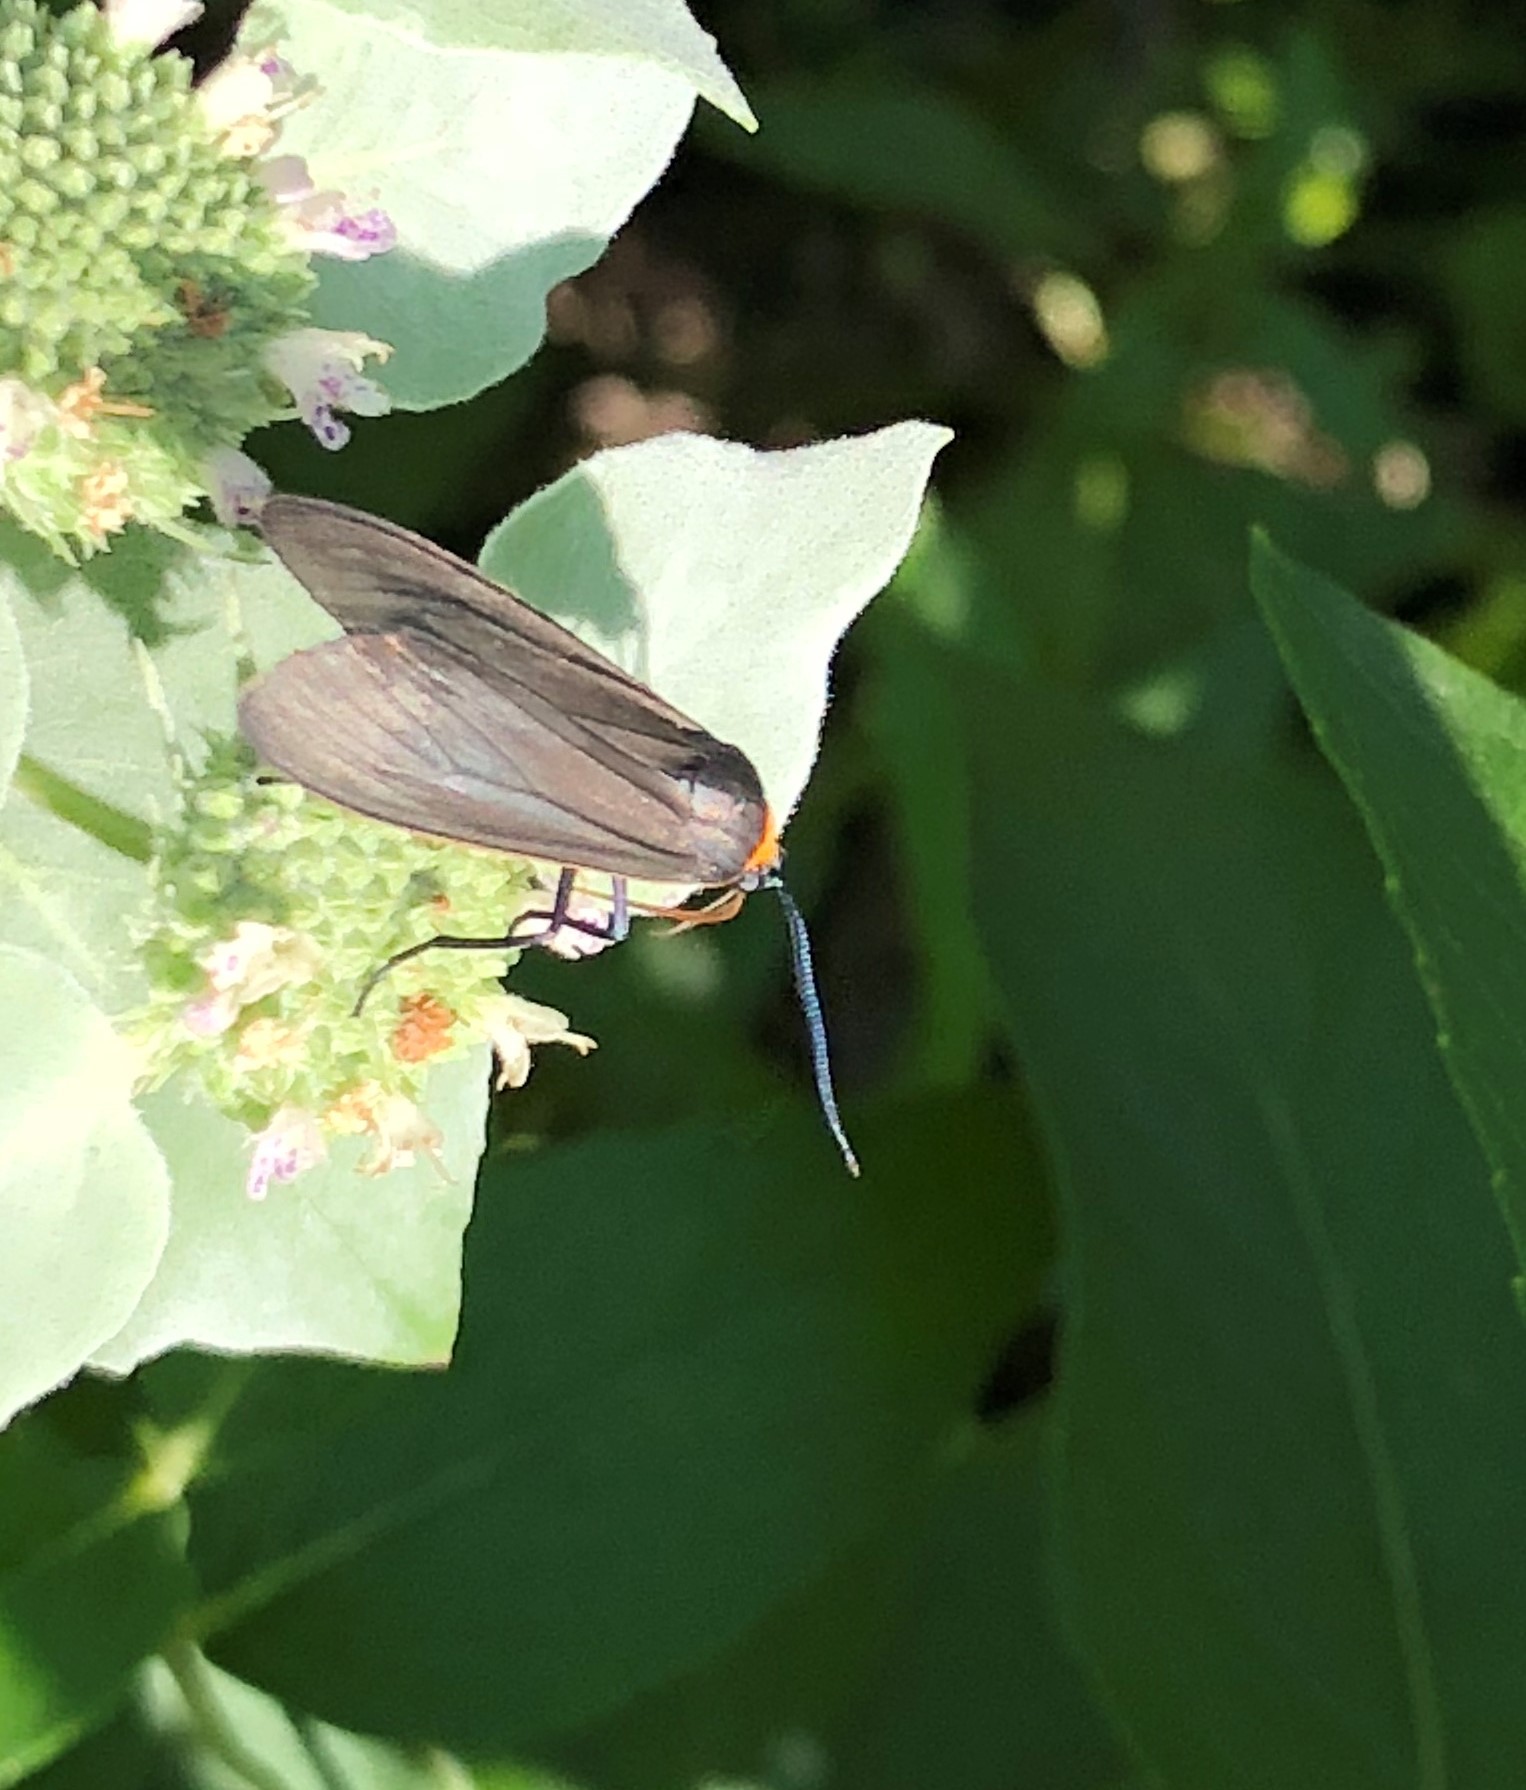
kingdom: Animalia
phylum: Arthropoda
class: Insecta
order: Lepidoptera
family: Erebidae
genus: Cisseps
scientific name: Cisseps fulvicollis
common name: Yellow-collared scape moth
